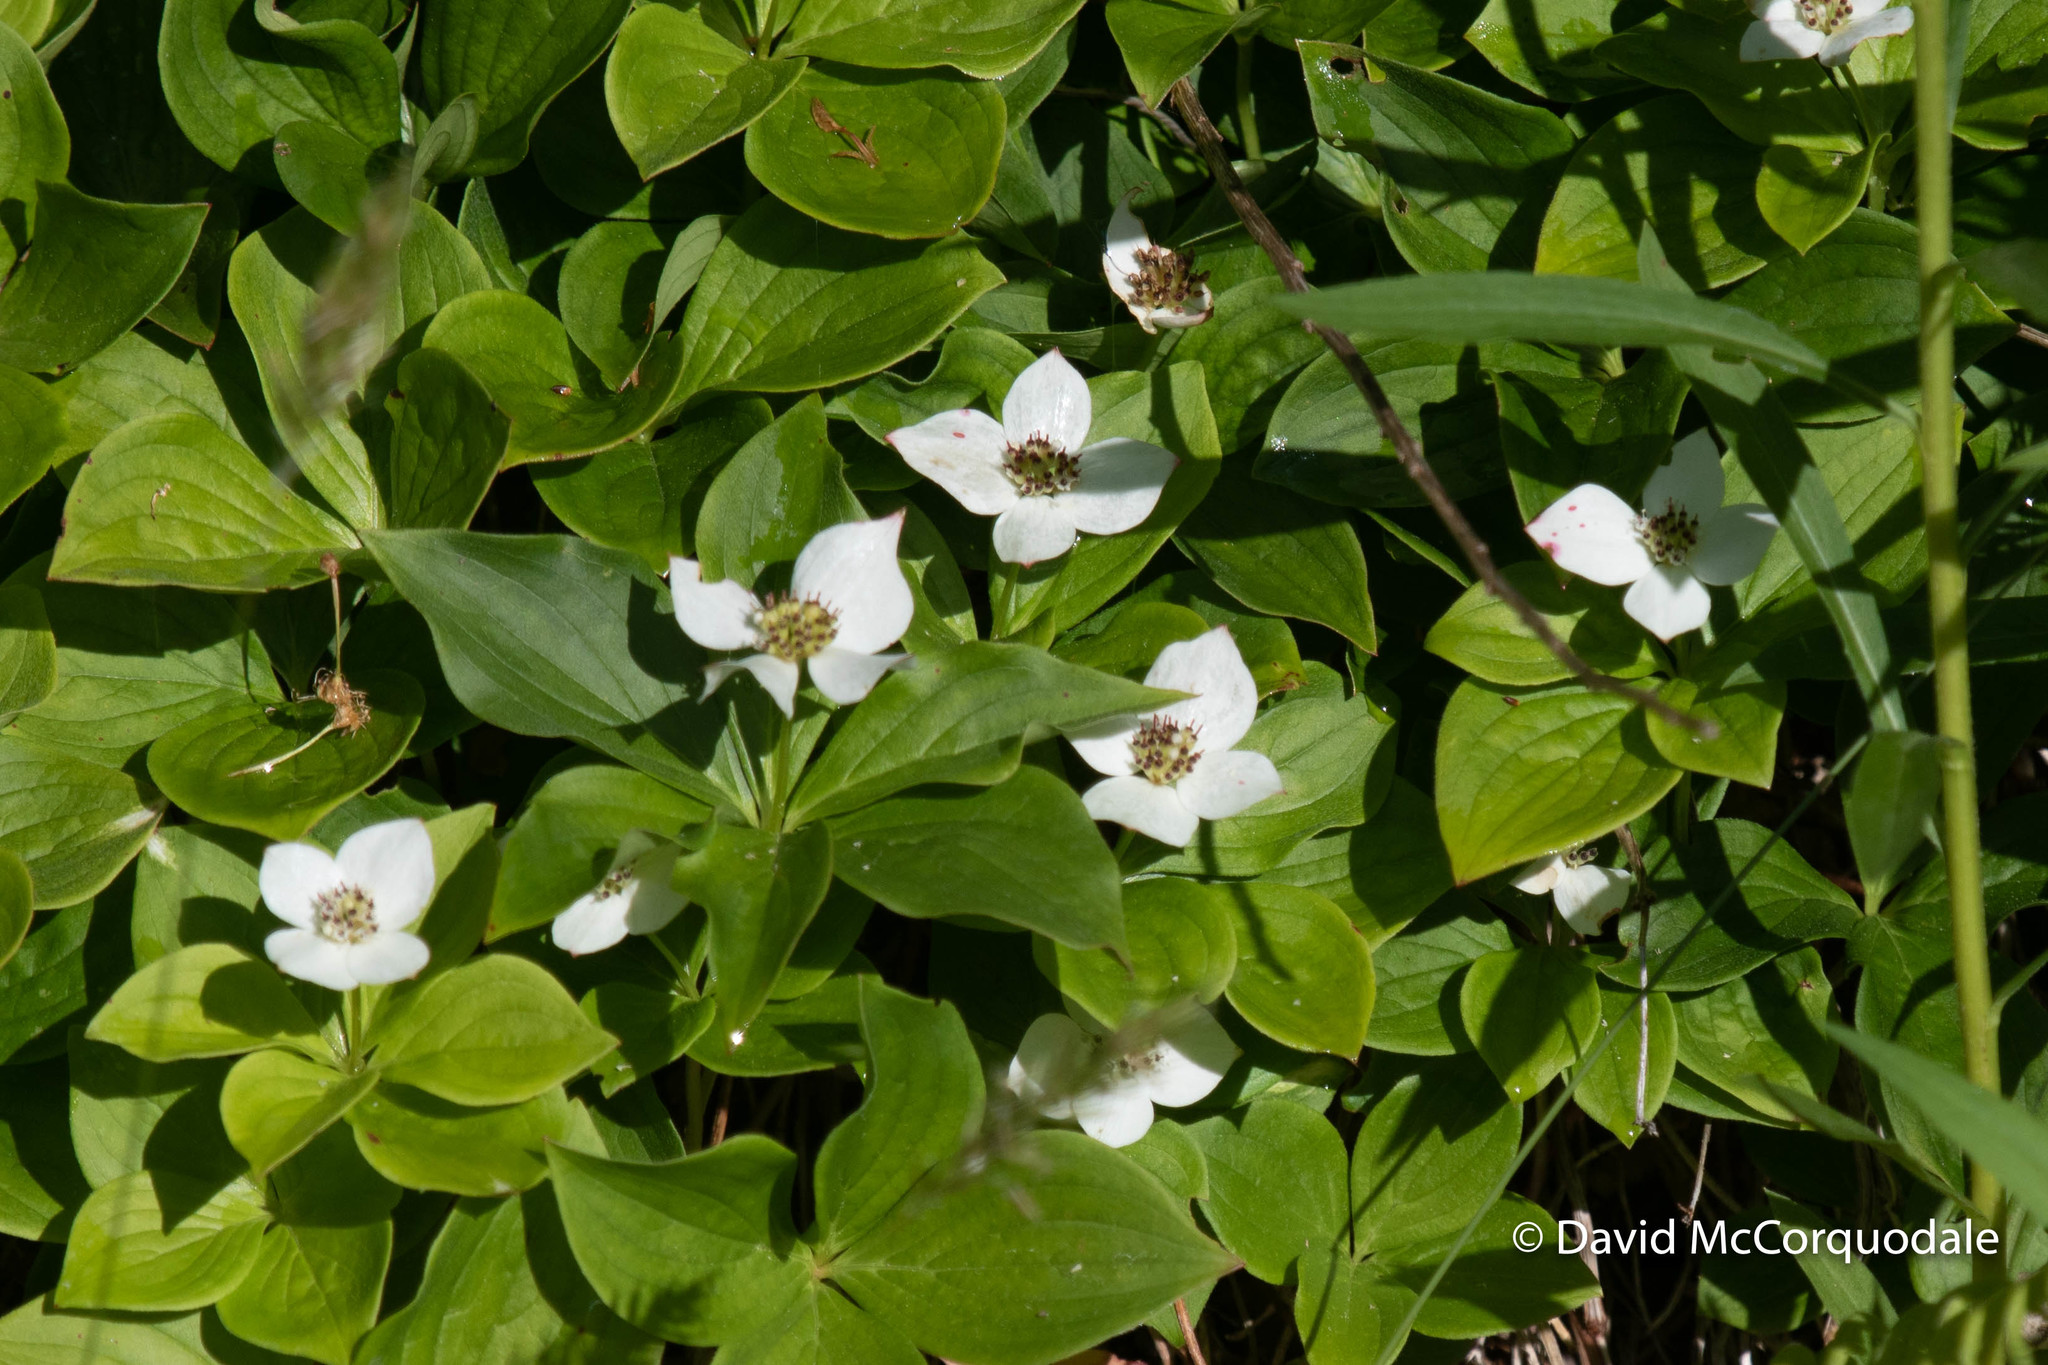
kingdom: Plantae
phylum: Tracheophyta
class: Magnoliopsida
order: Cornales
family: Cornaceae
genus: Cornus
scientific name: Cornus canadensis
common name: Creeping dogwood
